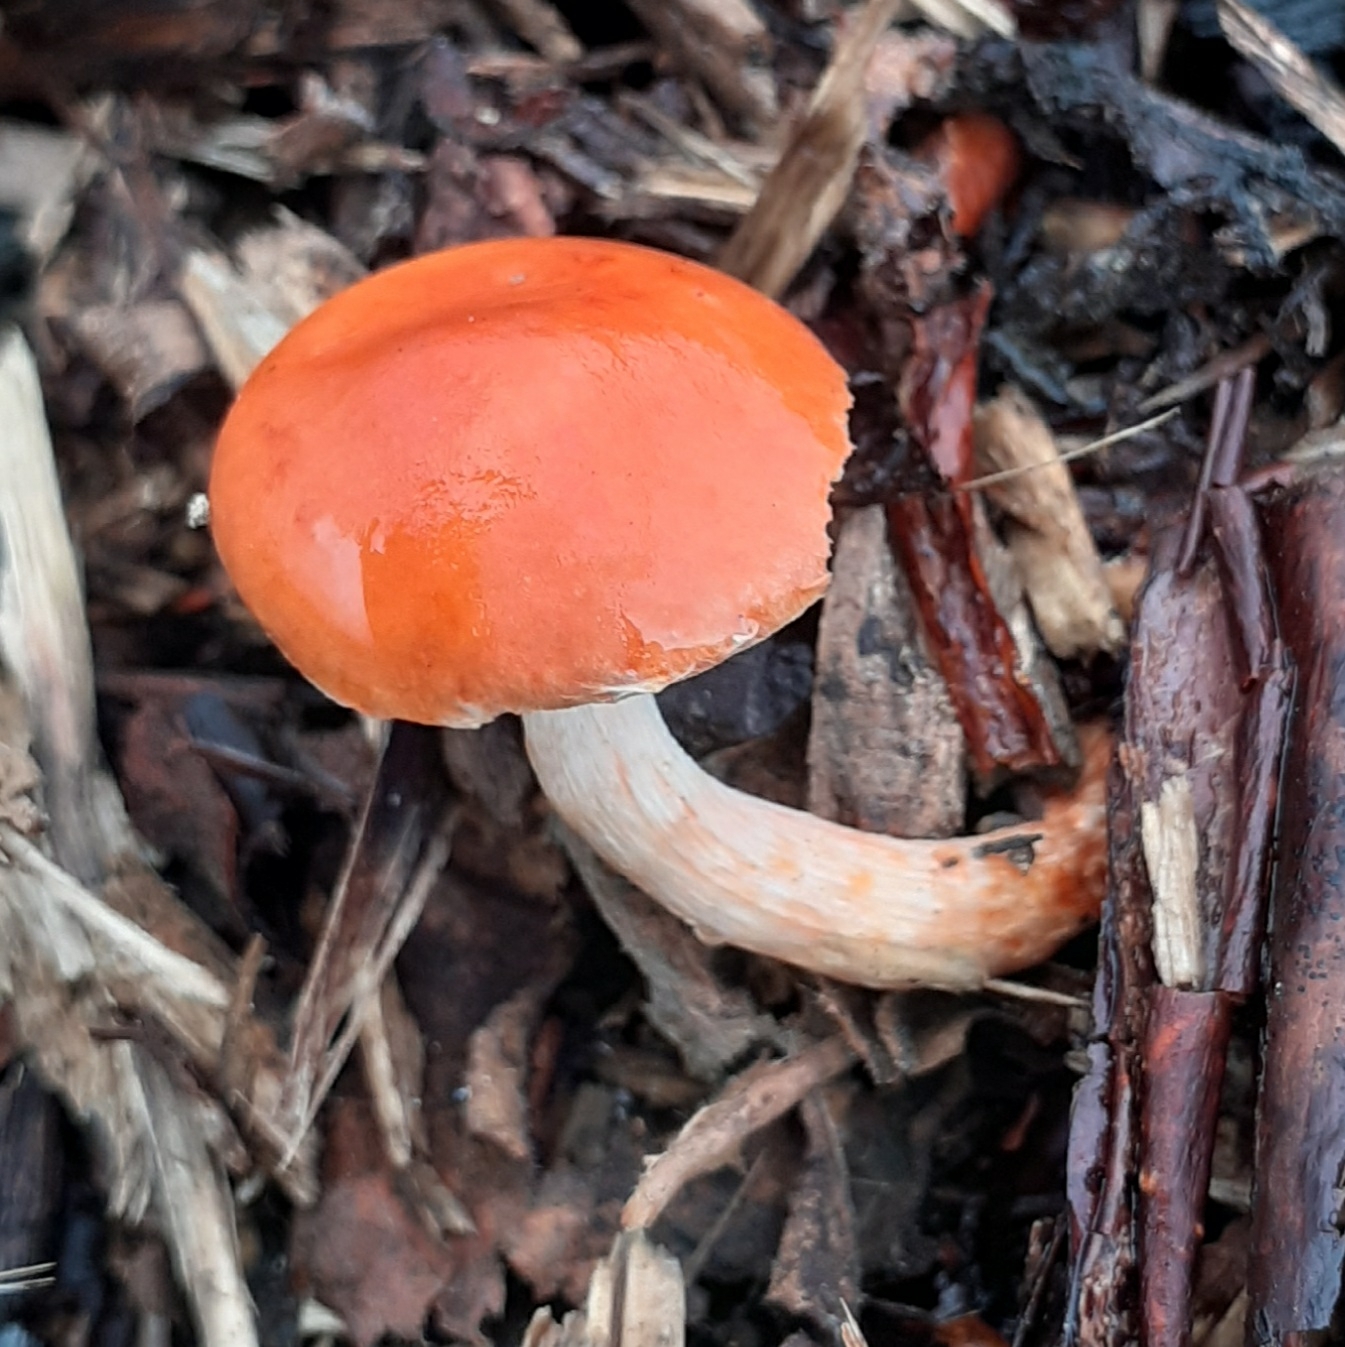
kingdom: Fungi
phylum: Basidiomycota
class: Agaricomycetes
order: Agaricales
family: Strophariaceae
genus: Leratiomyces
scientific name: Leratiomyces ceres
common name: Redlead roundhead
